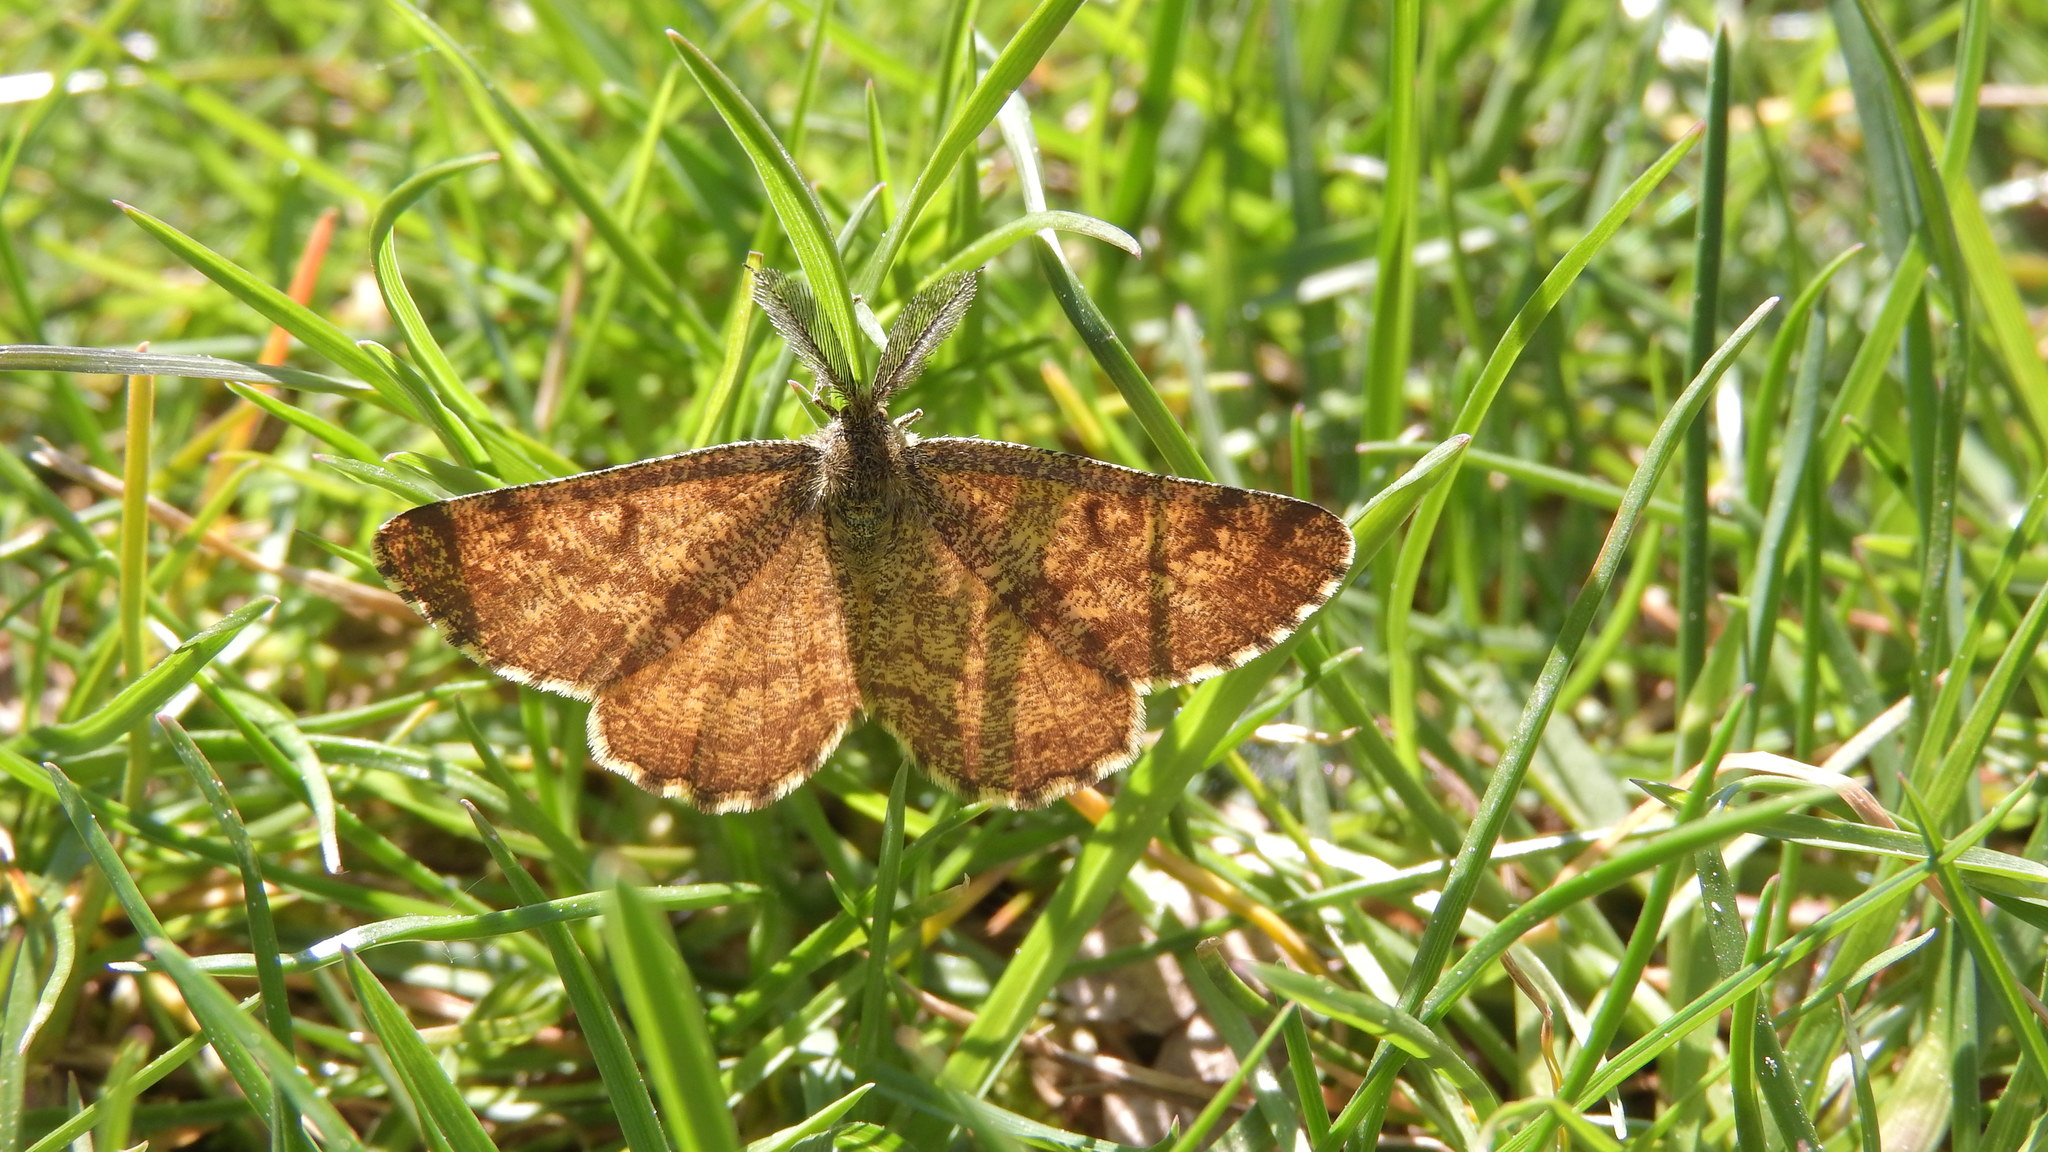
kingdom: Animalia
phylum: Arthropoda
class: Insecta
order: Lepidoptera
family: Geometridae
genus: Ematurga
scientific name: Ematurga atomaria
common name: Common heath
